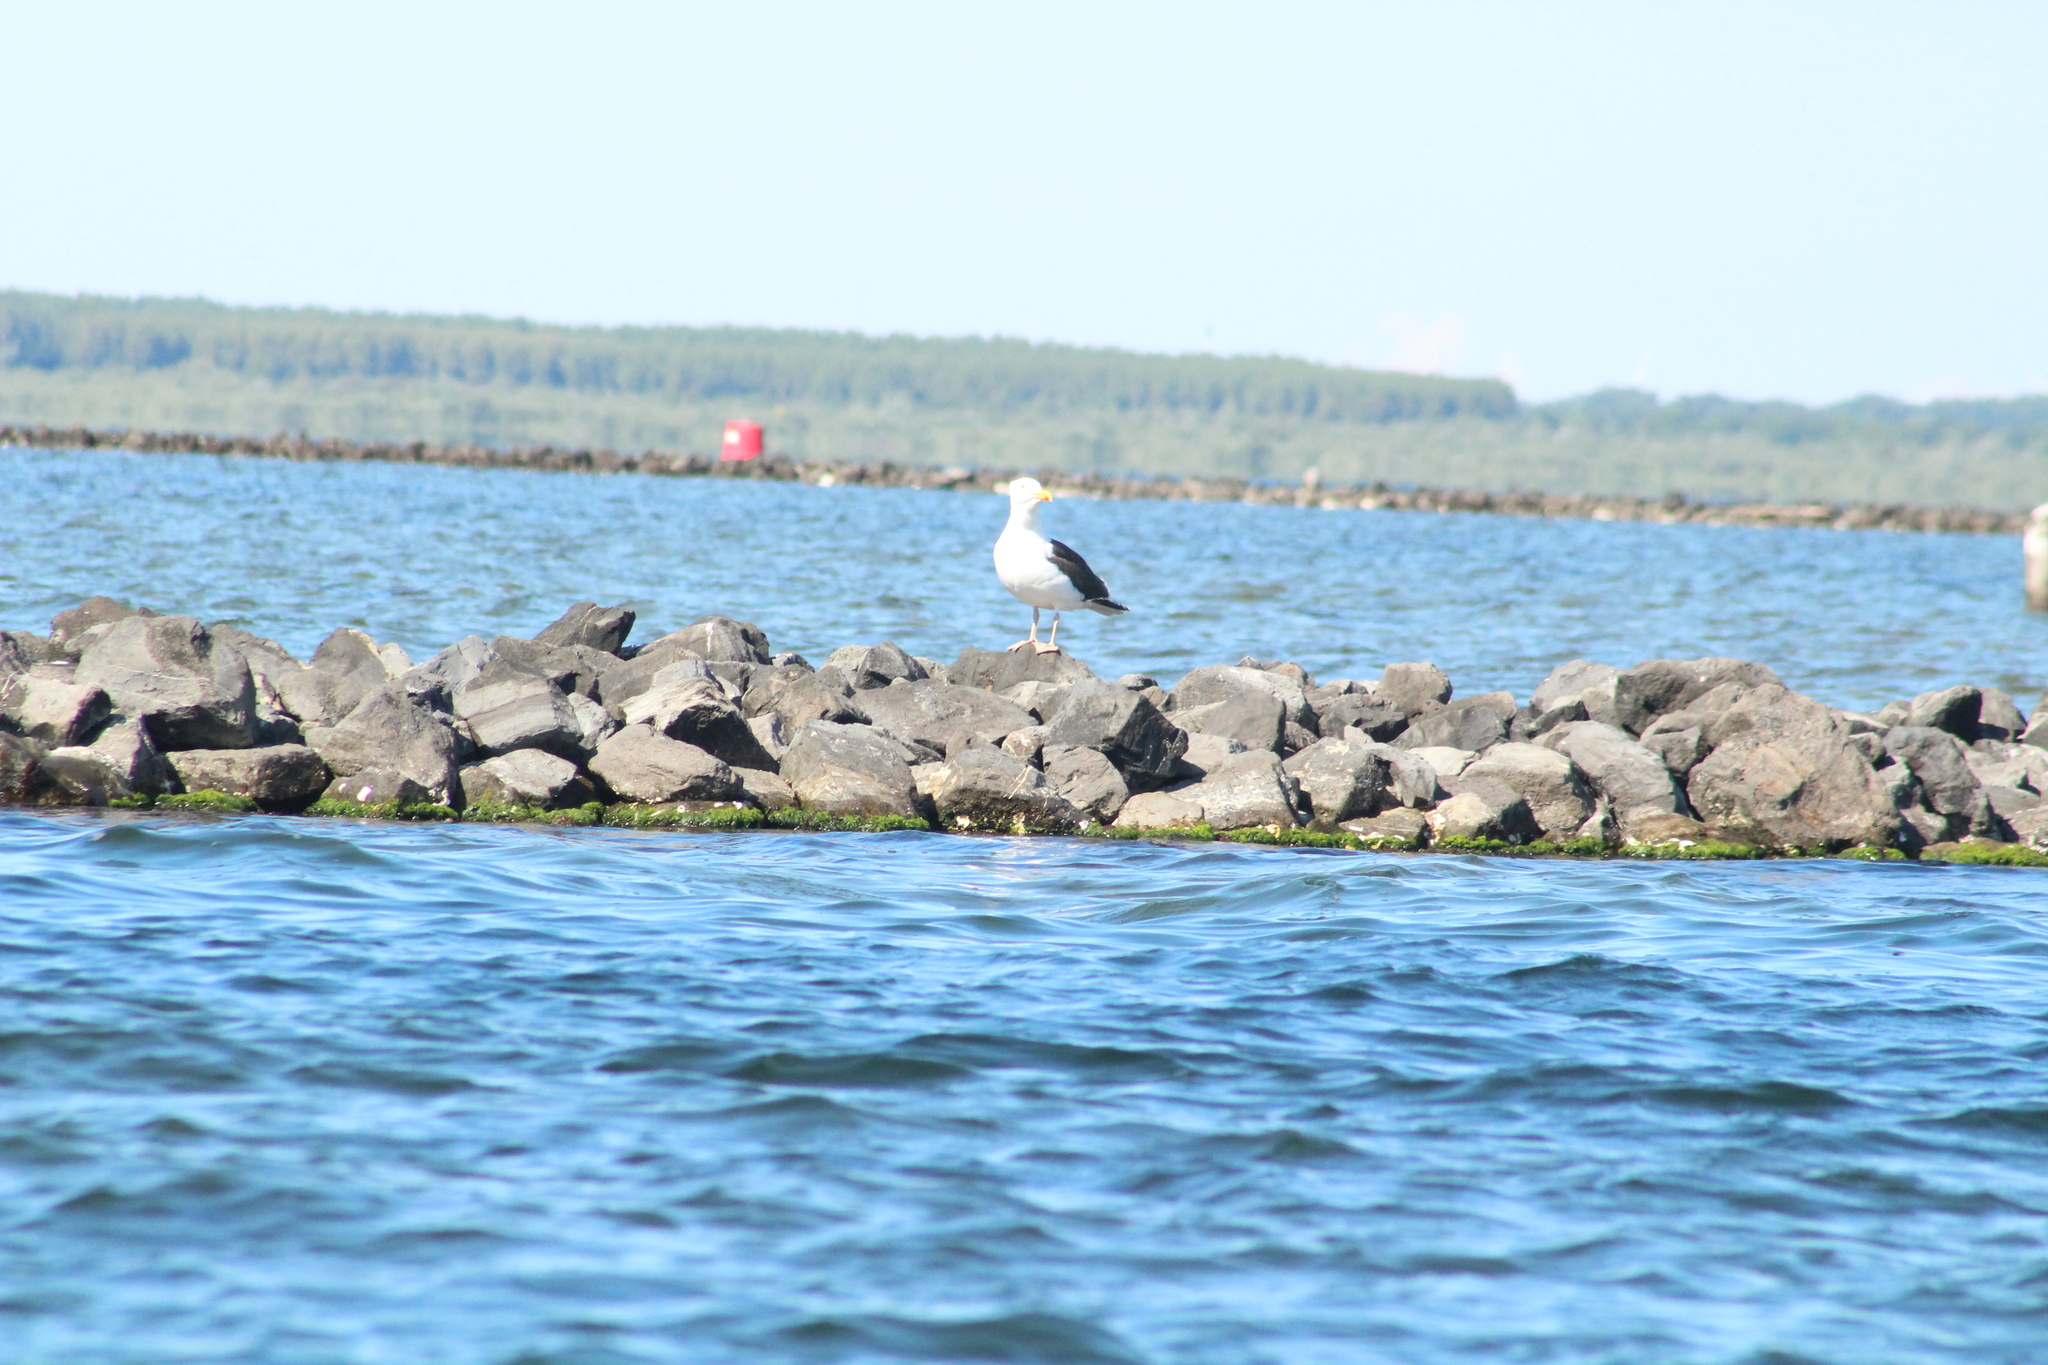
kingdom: Animalia
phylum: Chordata
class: Aves
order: Charadriiformes
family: Laridae
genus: Larus
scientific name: Larus marinus
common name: Great black-backed gull
